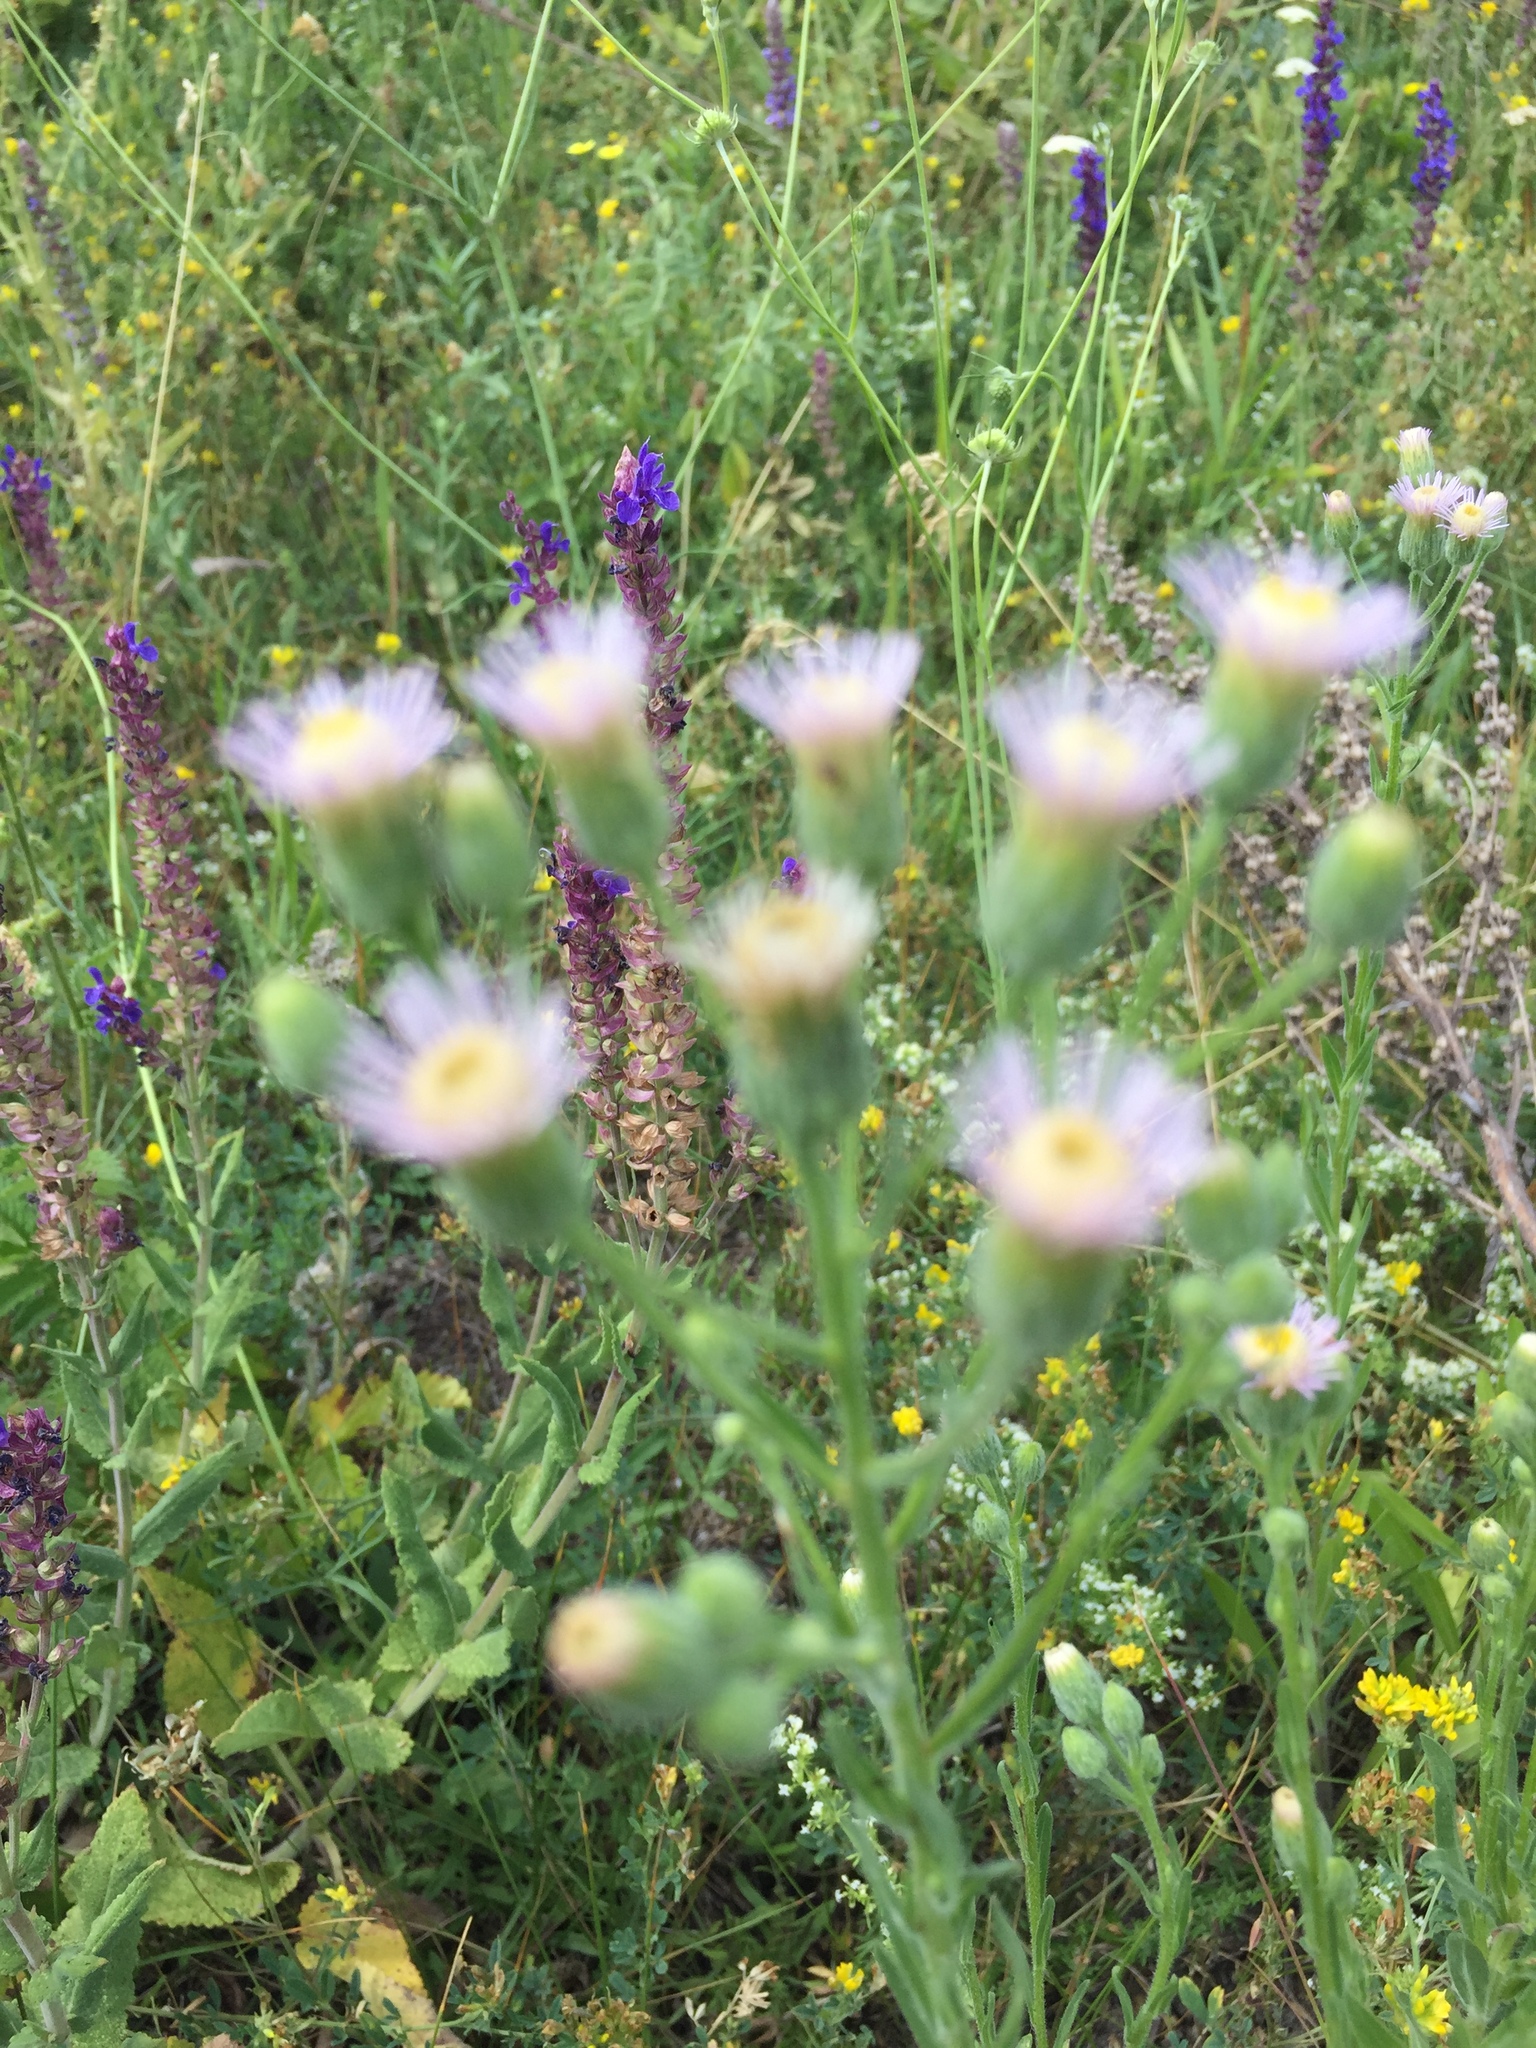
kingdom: Plantae
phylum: Tracheophyta
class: Magnoliopsida
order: Asterales
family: Asteraceae
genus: Erigeron
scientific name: Erigeron podolicus
